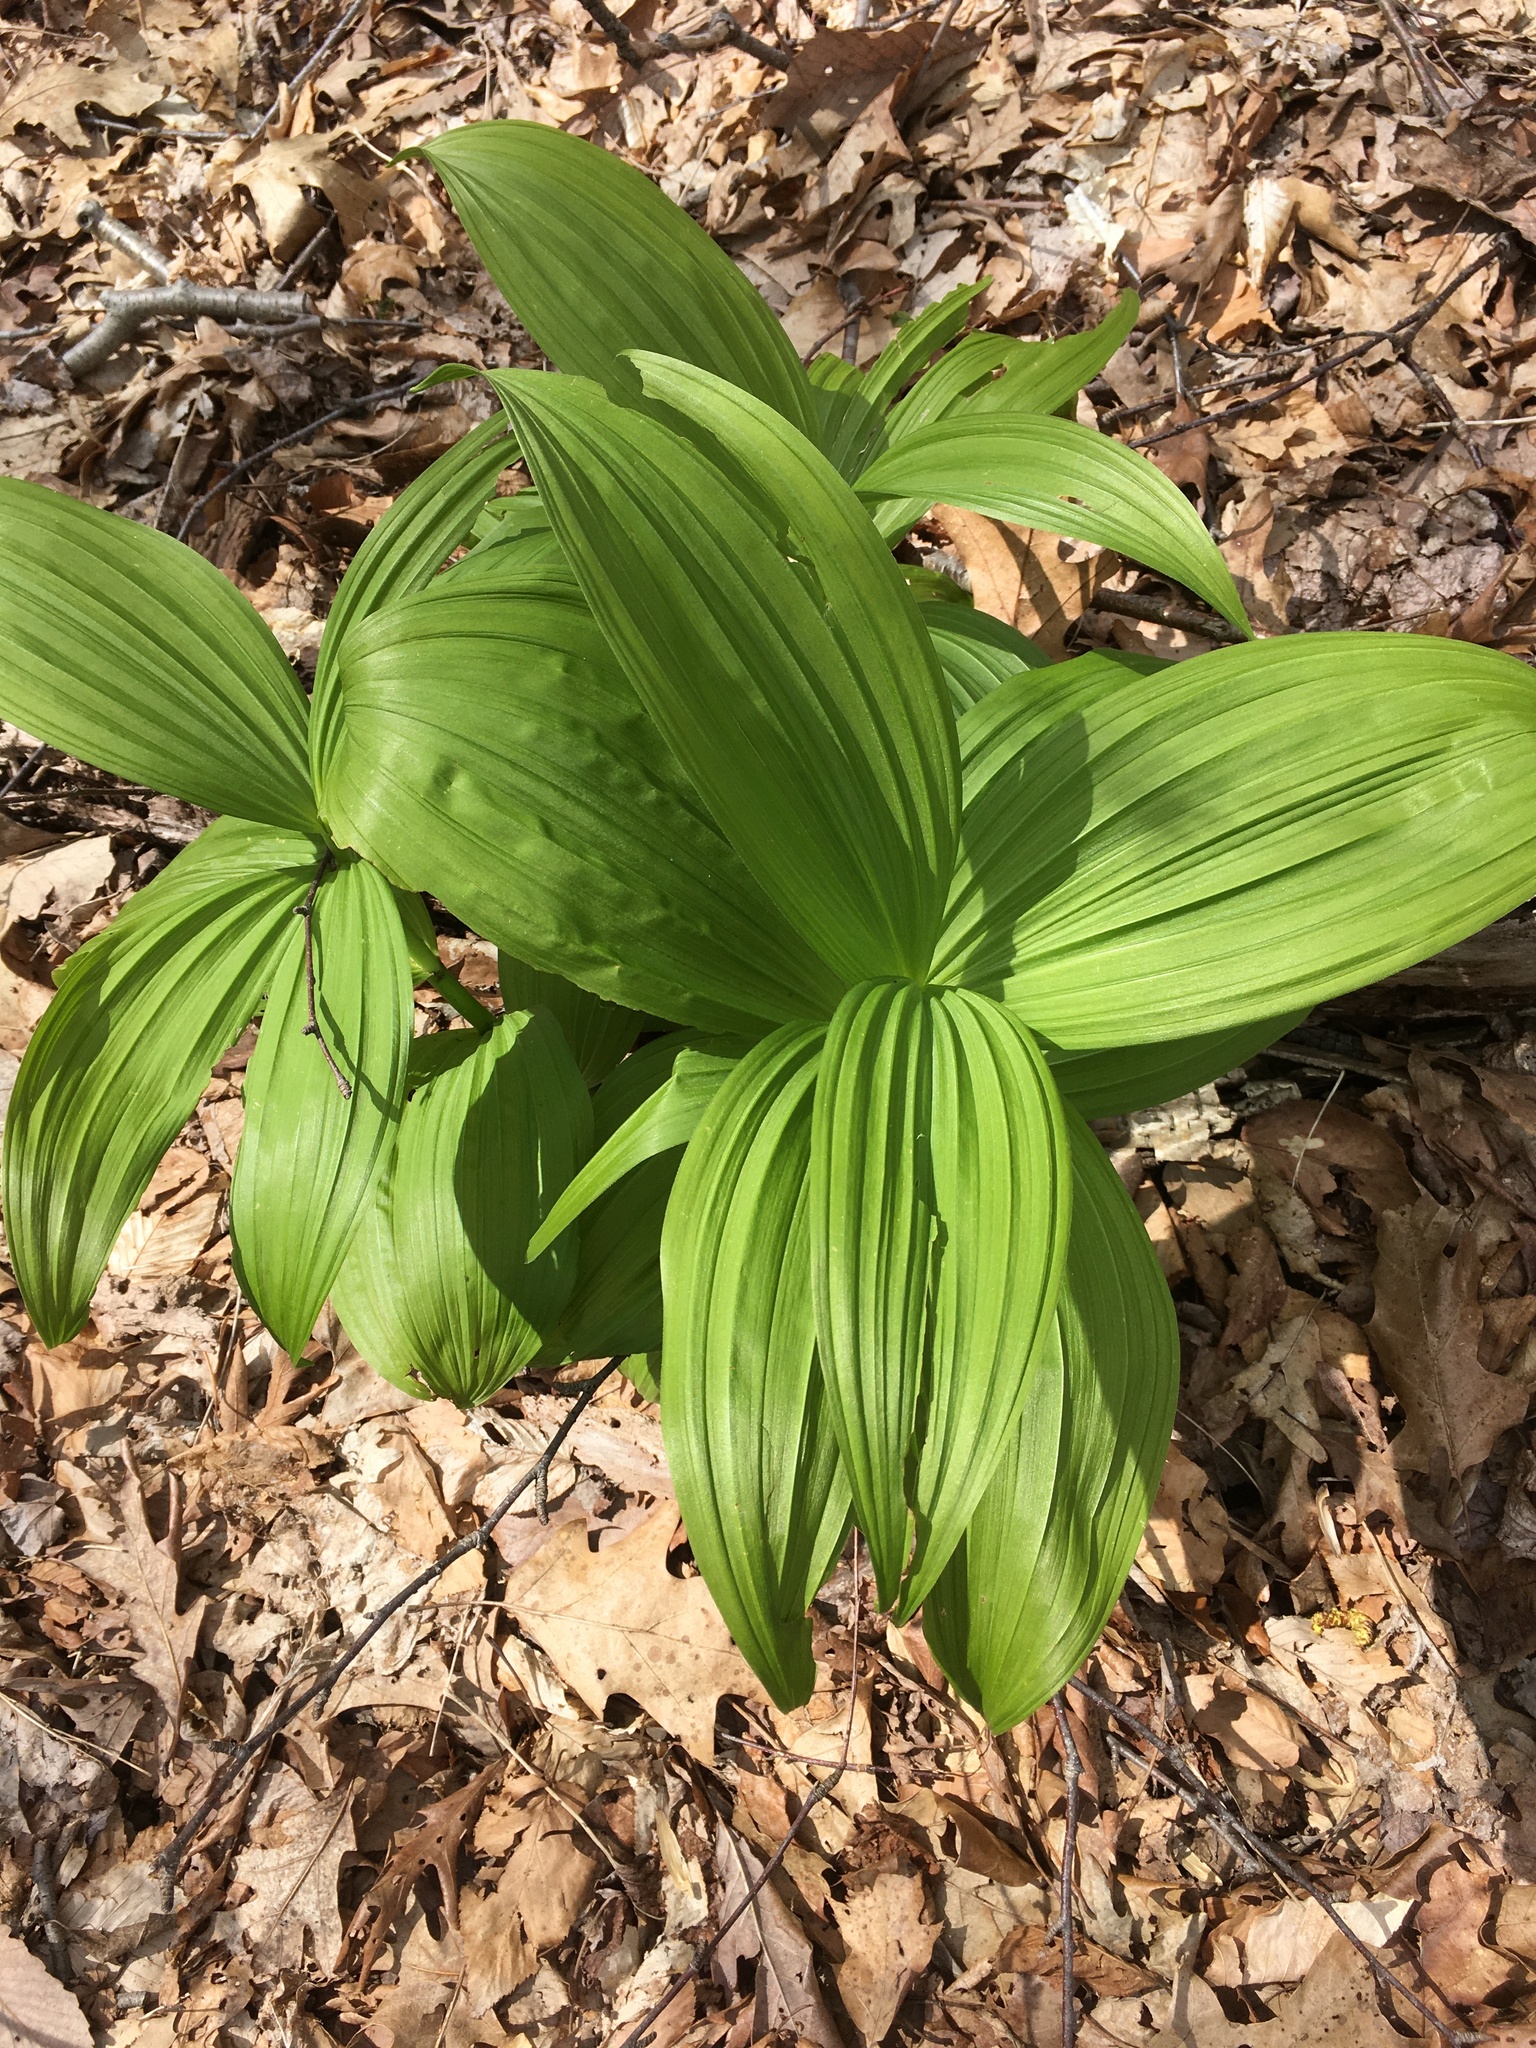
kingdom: Plantae
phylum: Tracheophyta
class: Liliopsida
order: Liliales
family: Melanthiaceae
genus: Veratrum
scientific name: Veratrum viride
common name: American false hellebore
